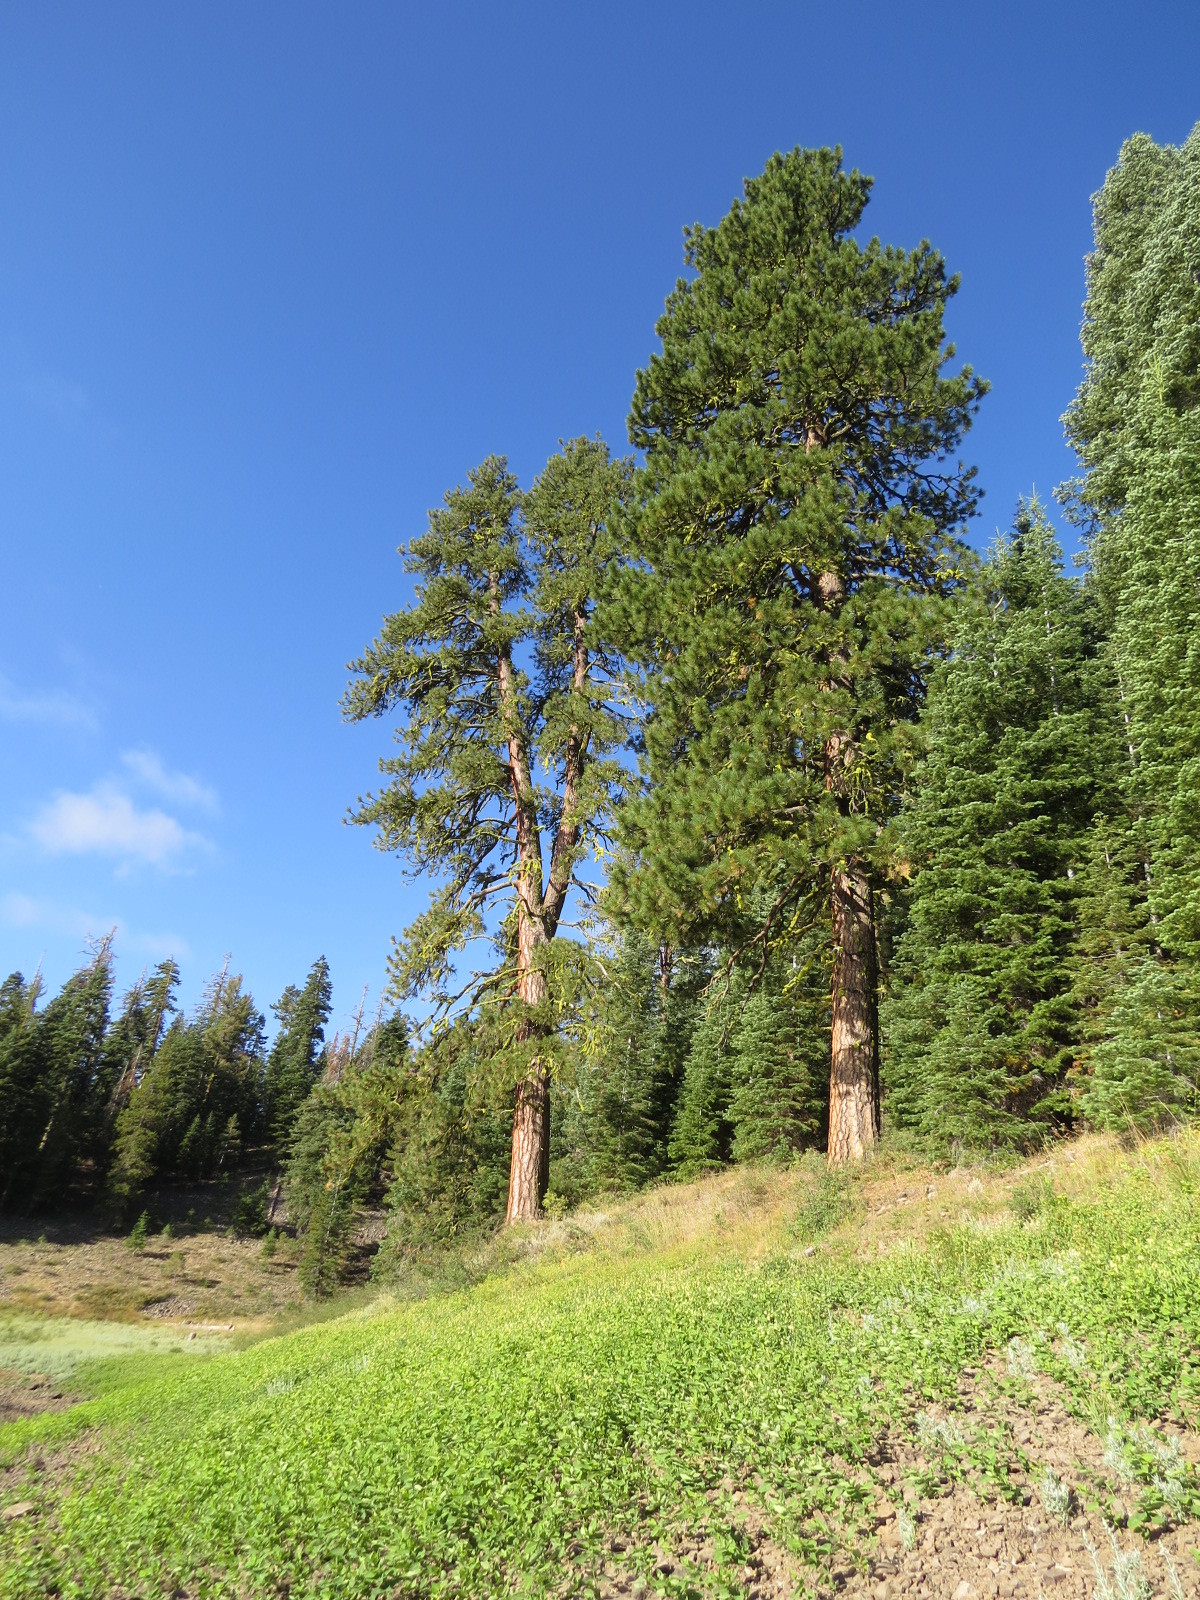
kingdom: Plantae
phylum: Tracheophyta
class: Pinopsida
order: Pinales
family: Pinaceae
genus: Pinus
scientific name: Pinus ponderosa
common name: Western yellow-pine
